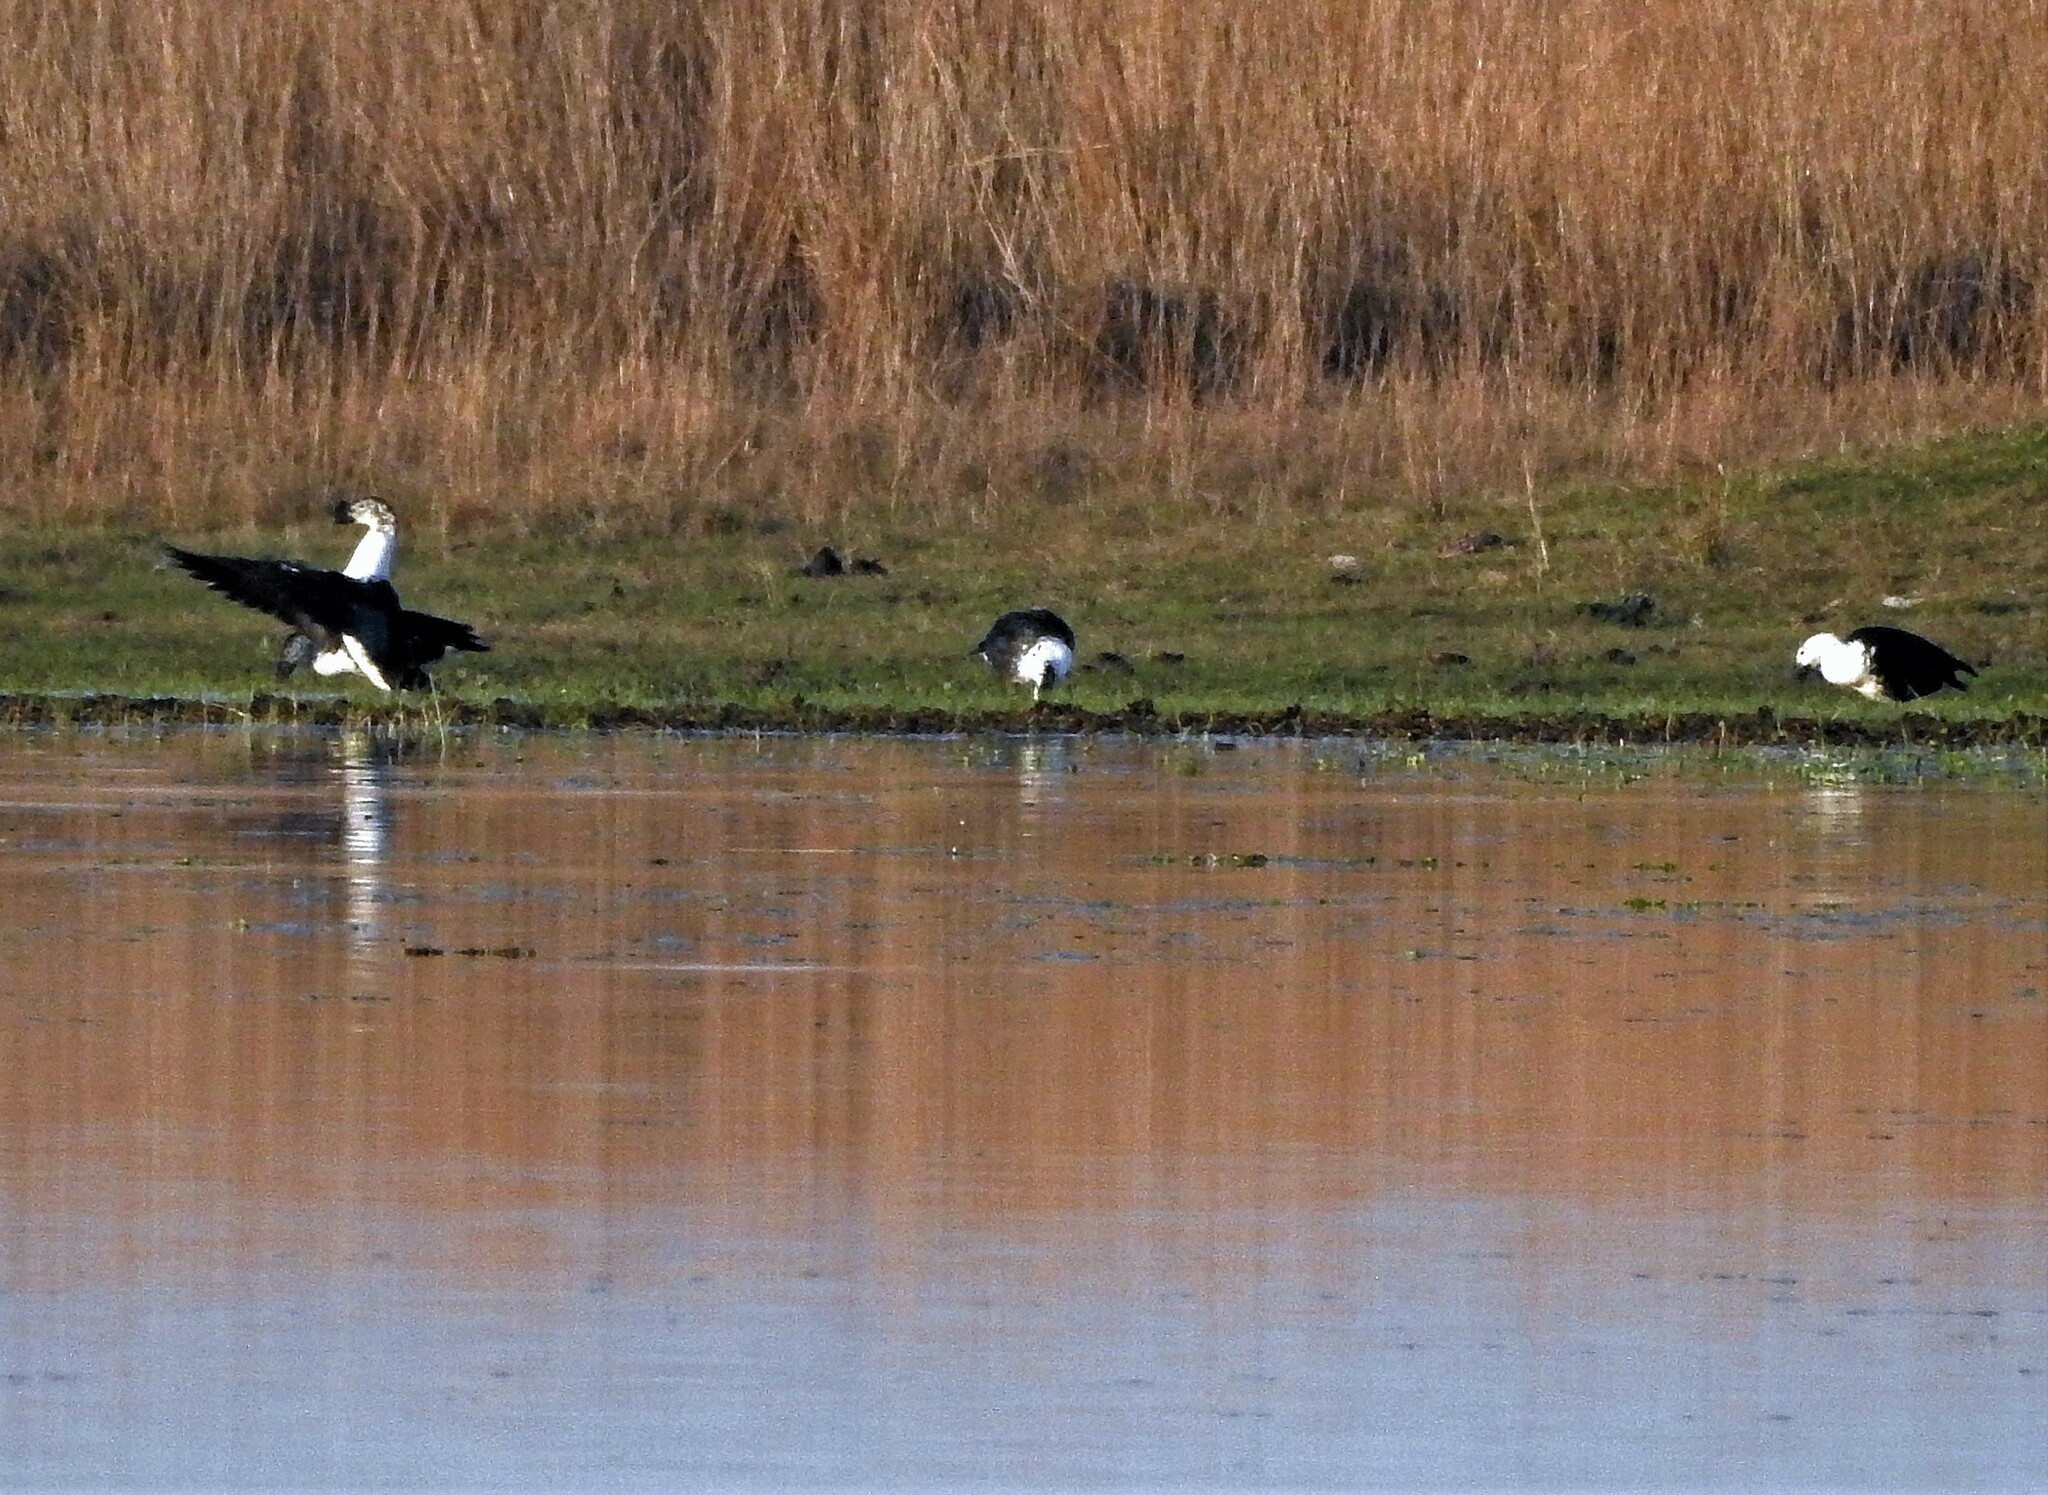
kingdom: Animalia
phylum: Chordata
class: Aves
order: Anseriformes
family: Anatidae
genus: Sarkidiornis
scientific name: Sarkidiornis sylvicola
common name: Comb duck
